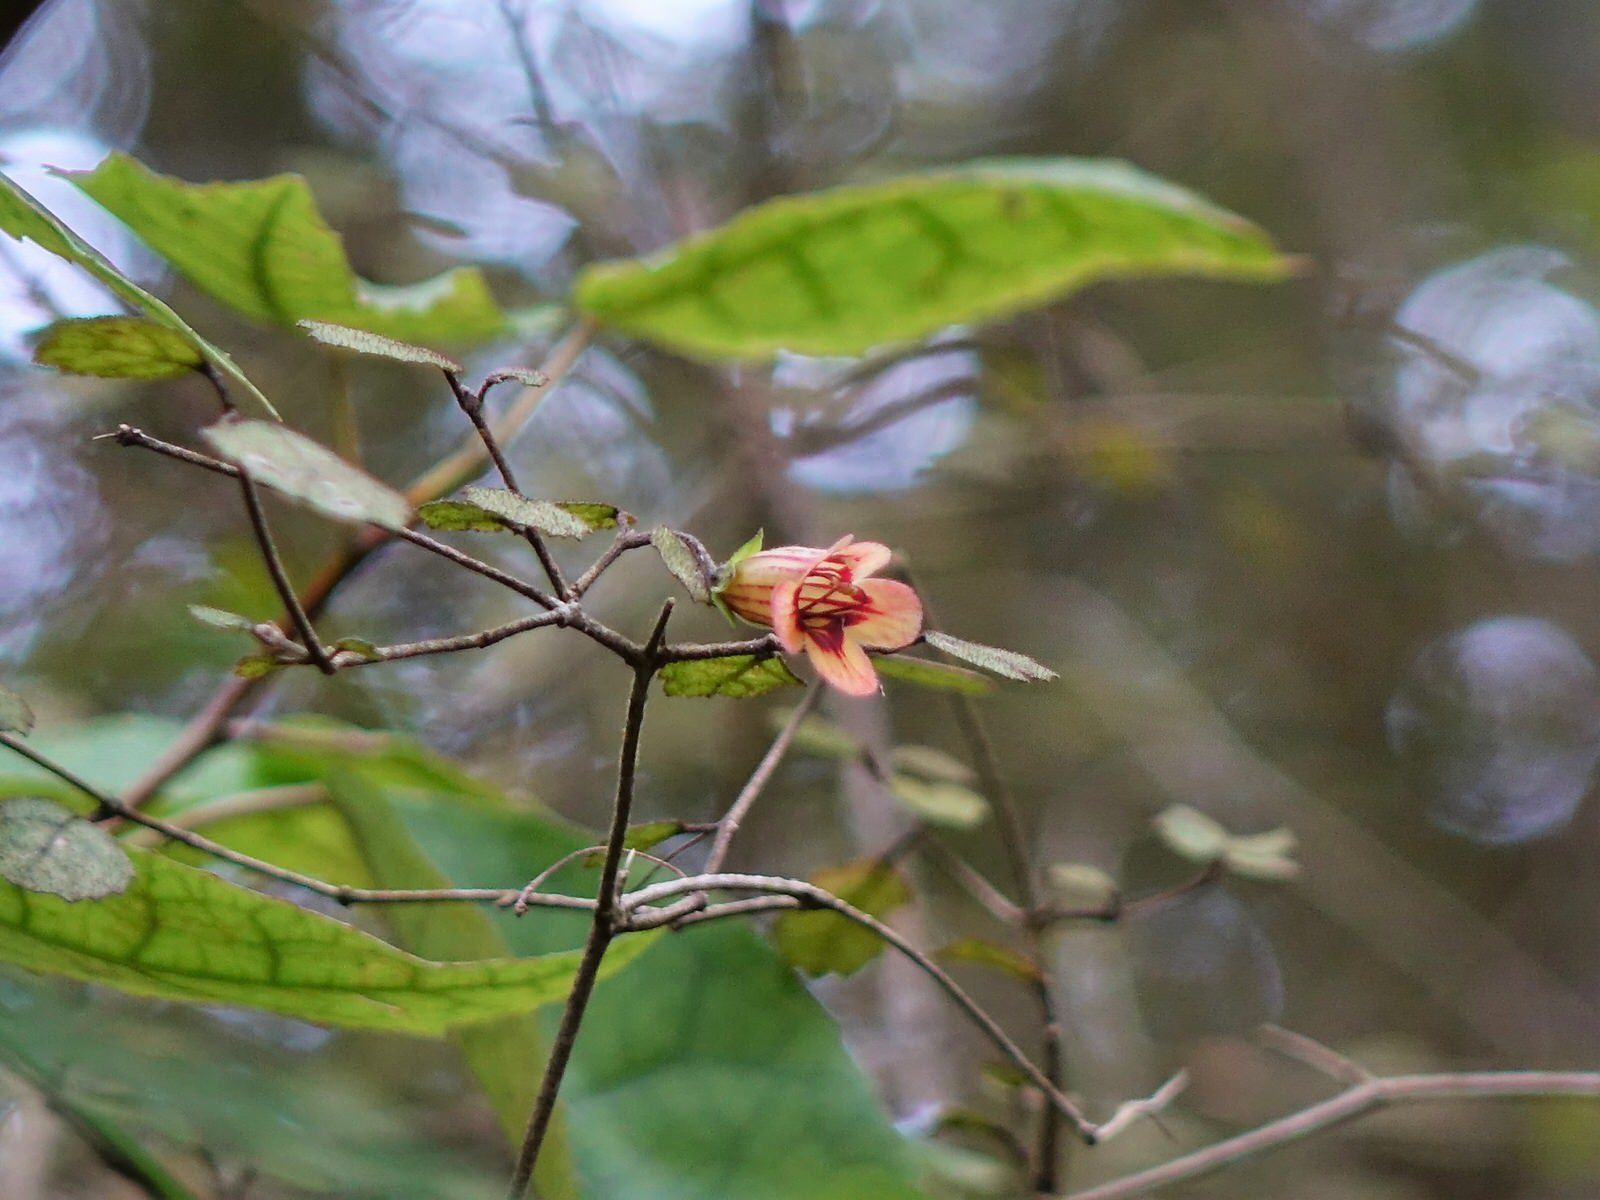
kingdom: Plantae
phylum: Tracheophyta
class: Magnoliopsida
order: Lamiales
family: Gesneriaceae
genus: Rhabdothamnus
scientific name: Rhabdothamnus solandri
